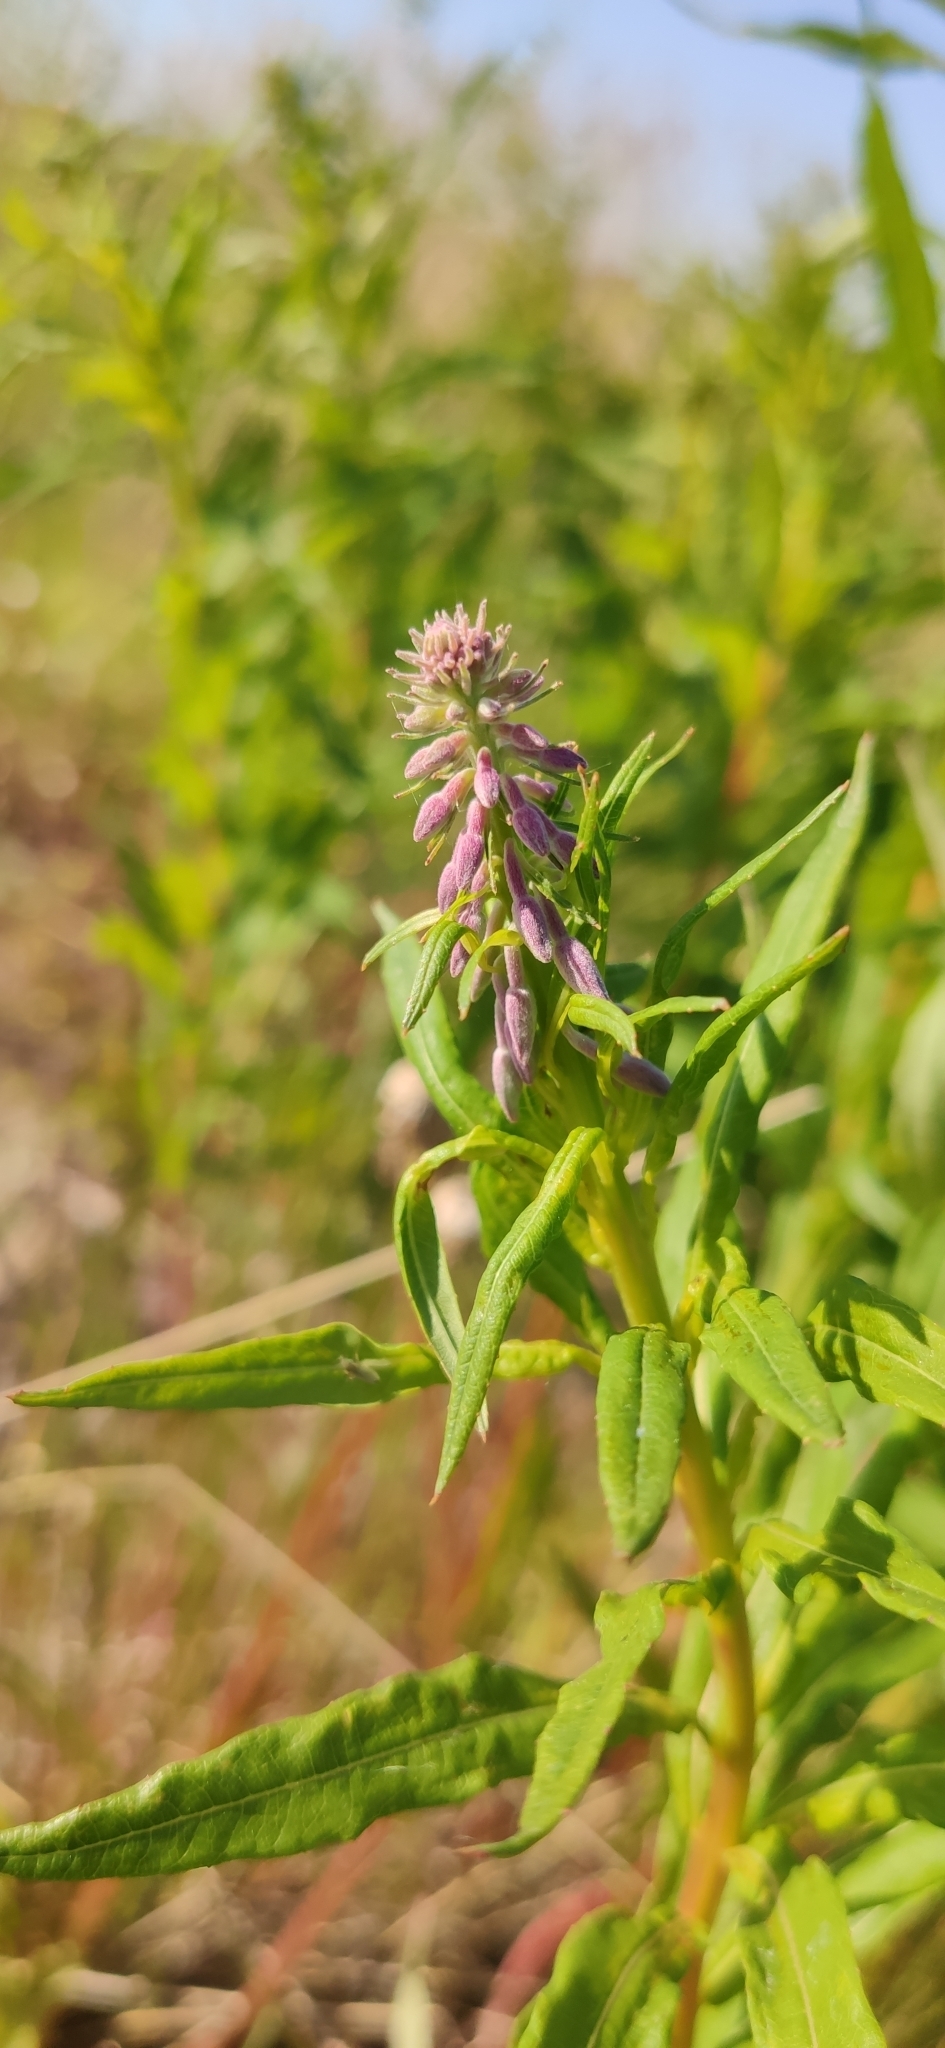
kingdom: Plantae
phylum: Tracheophyta
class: Magnoliopsida
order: Myrtales
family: Onagraceae
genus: Chamaenerion
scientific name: Chamaenerion angustifolium
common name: Fireweed
